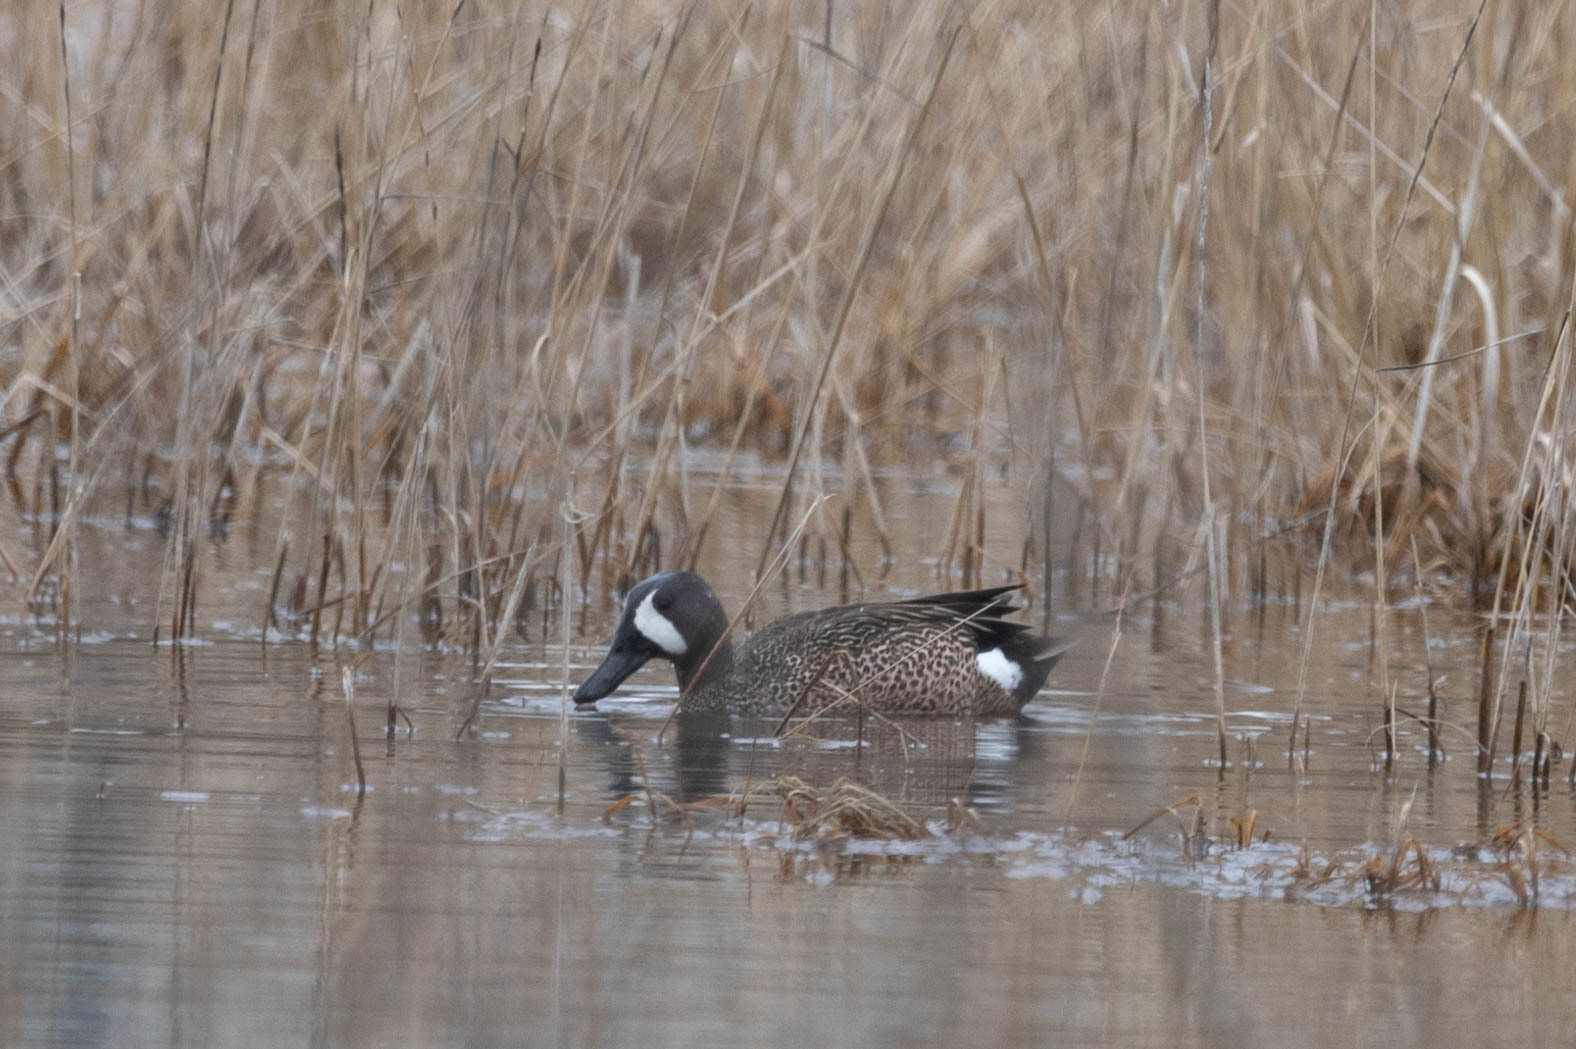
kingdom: Animalia
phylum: Chordata
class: Aves
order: Anseriformes
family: Anatidae
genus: Spatula
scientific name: Spatula discors
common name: Blue-winged teal
